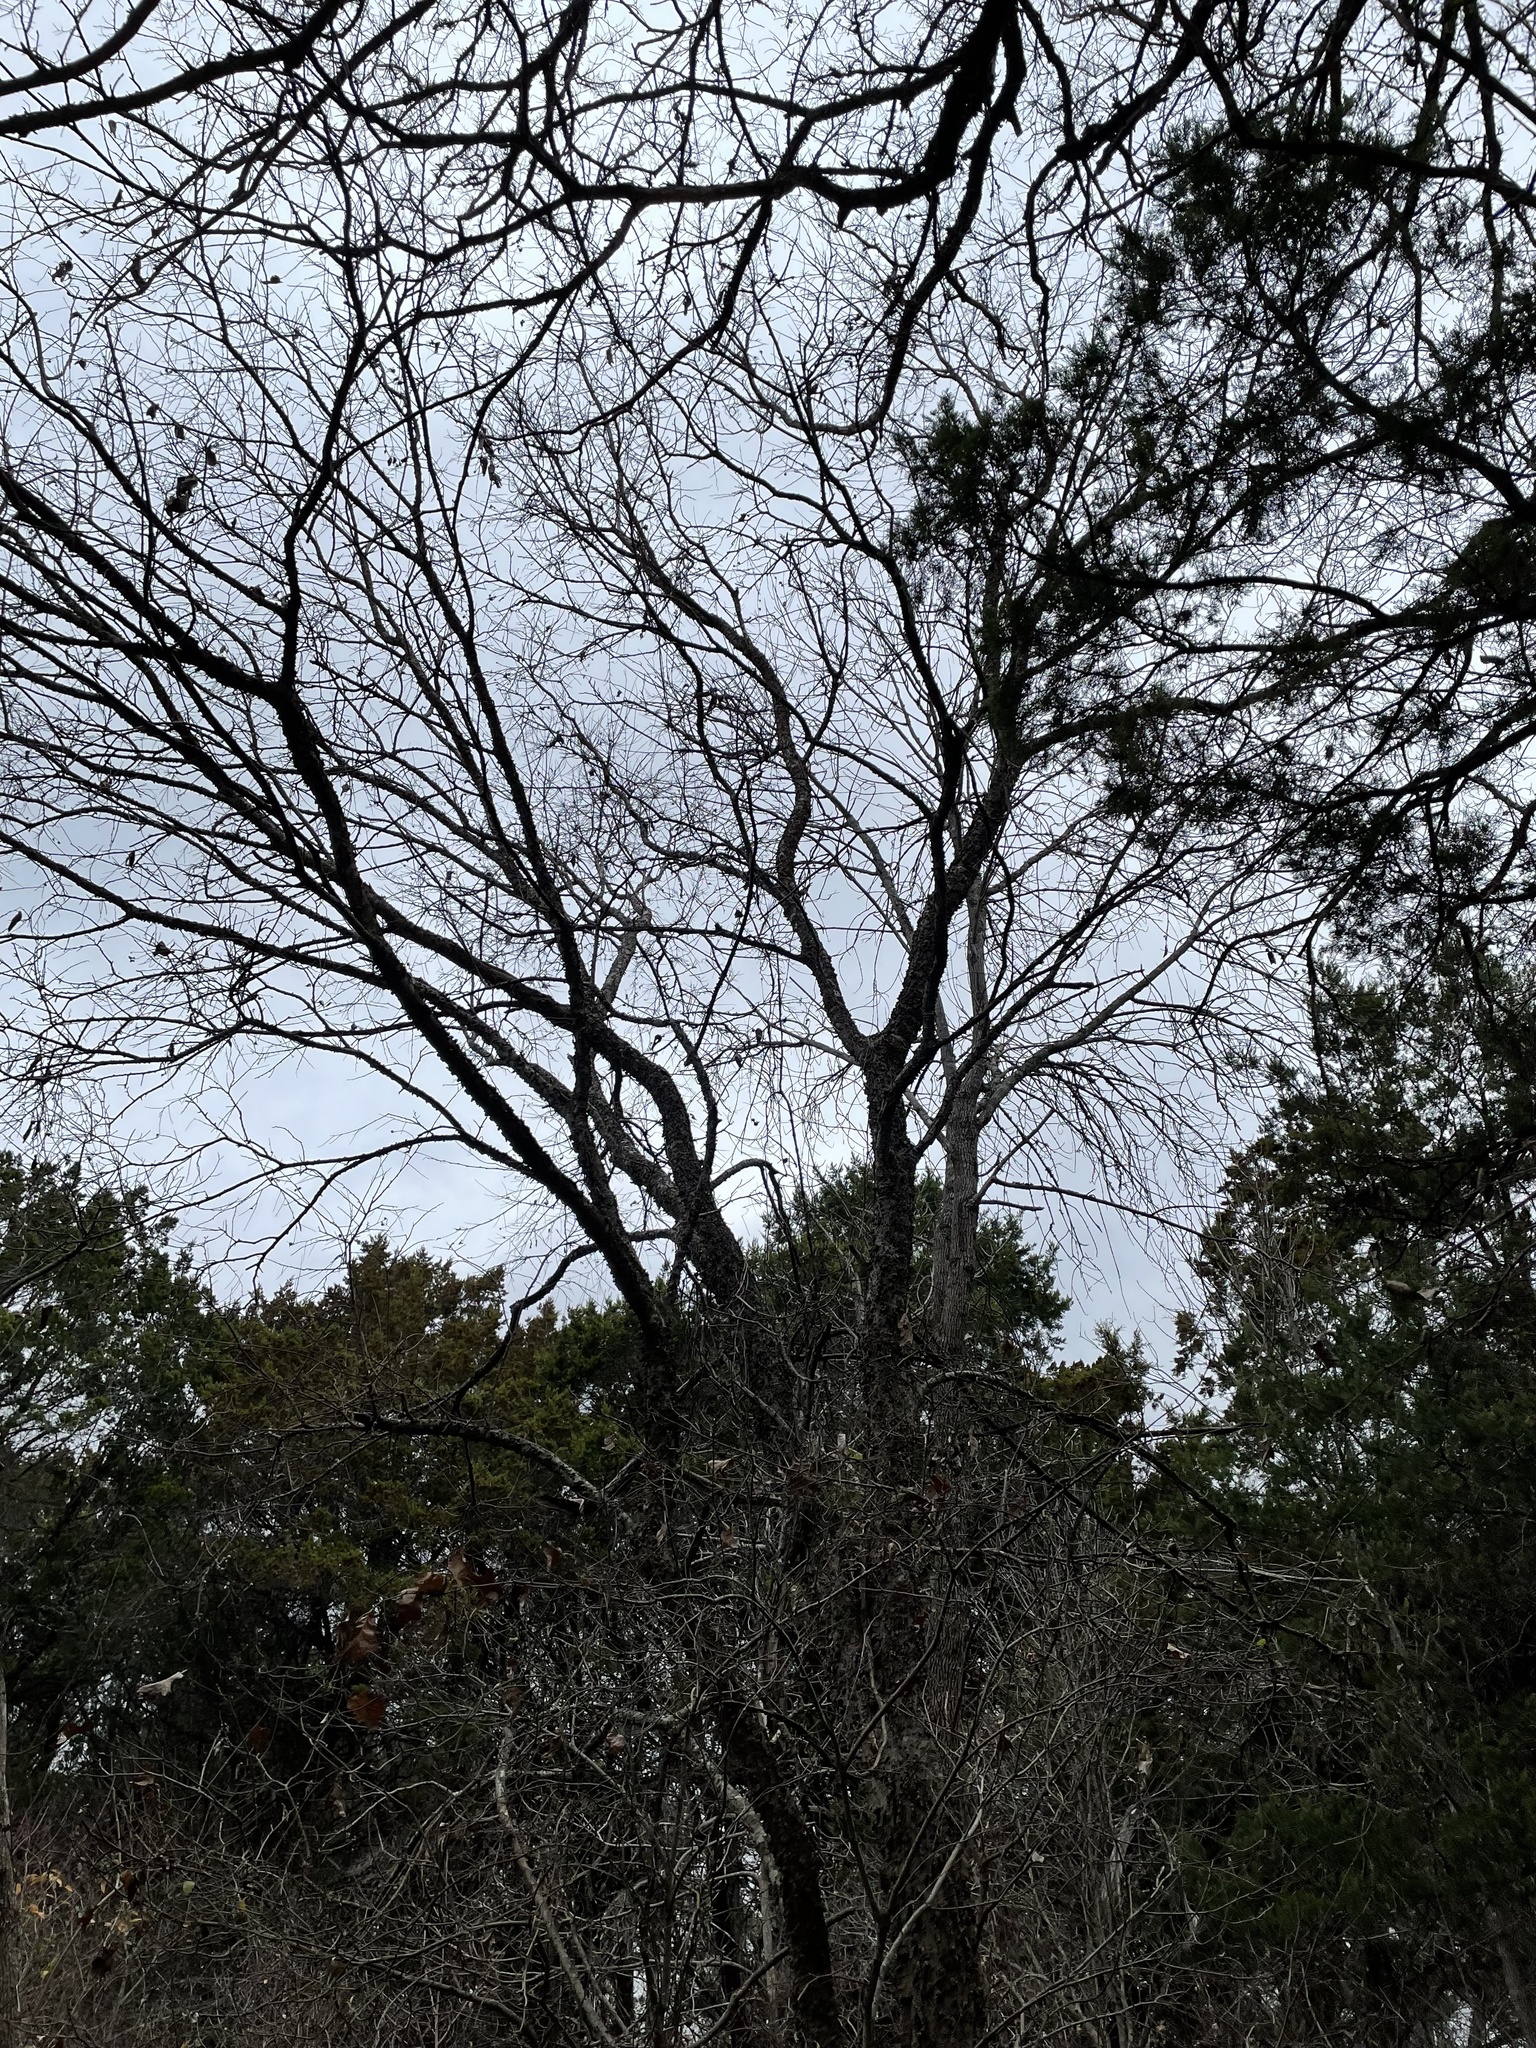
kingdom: Plantae
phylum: Tracheophyta
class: Magnoliopsida
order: Rosales
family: Cannabaceae
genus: Celtis
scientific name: Celtis laevigata
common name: Sugarberry
